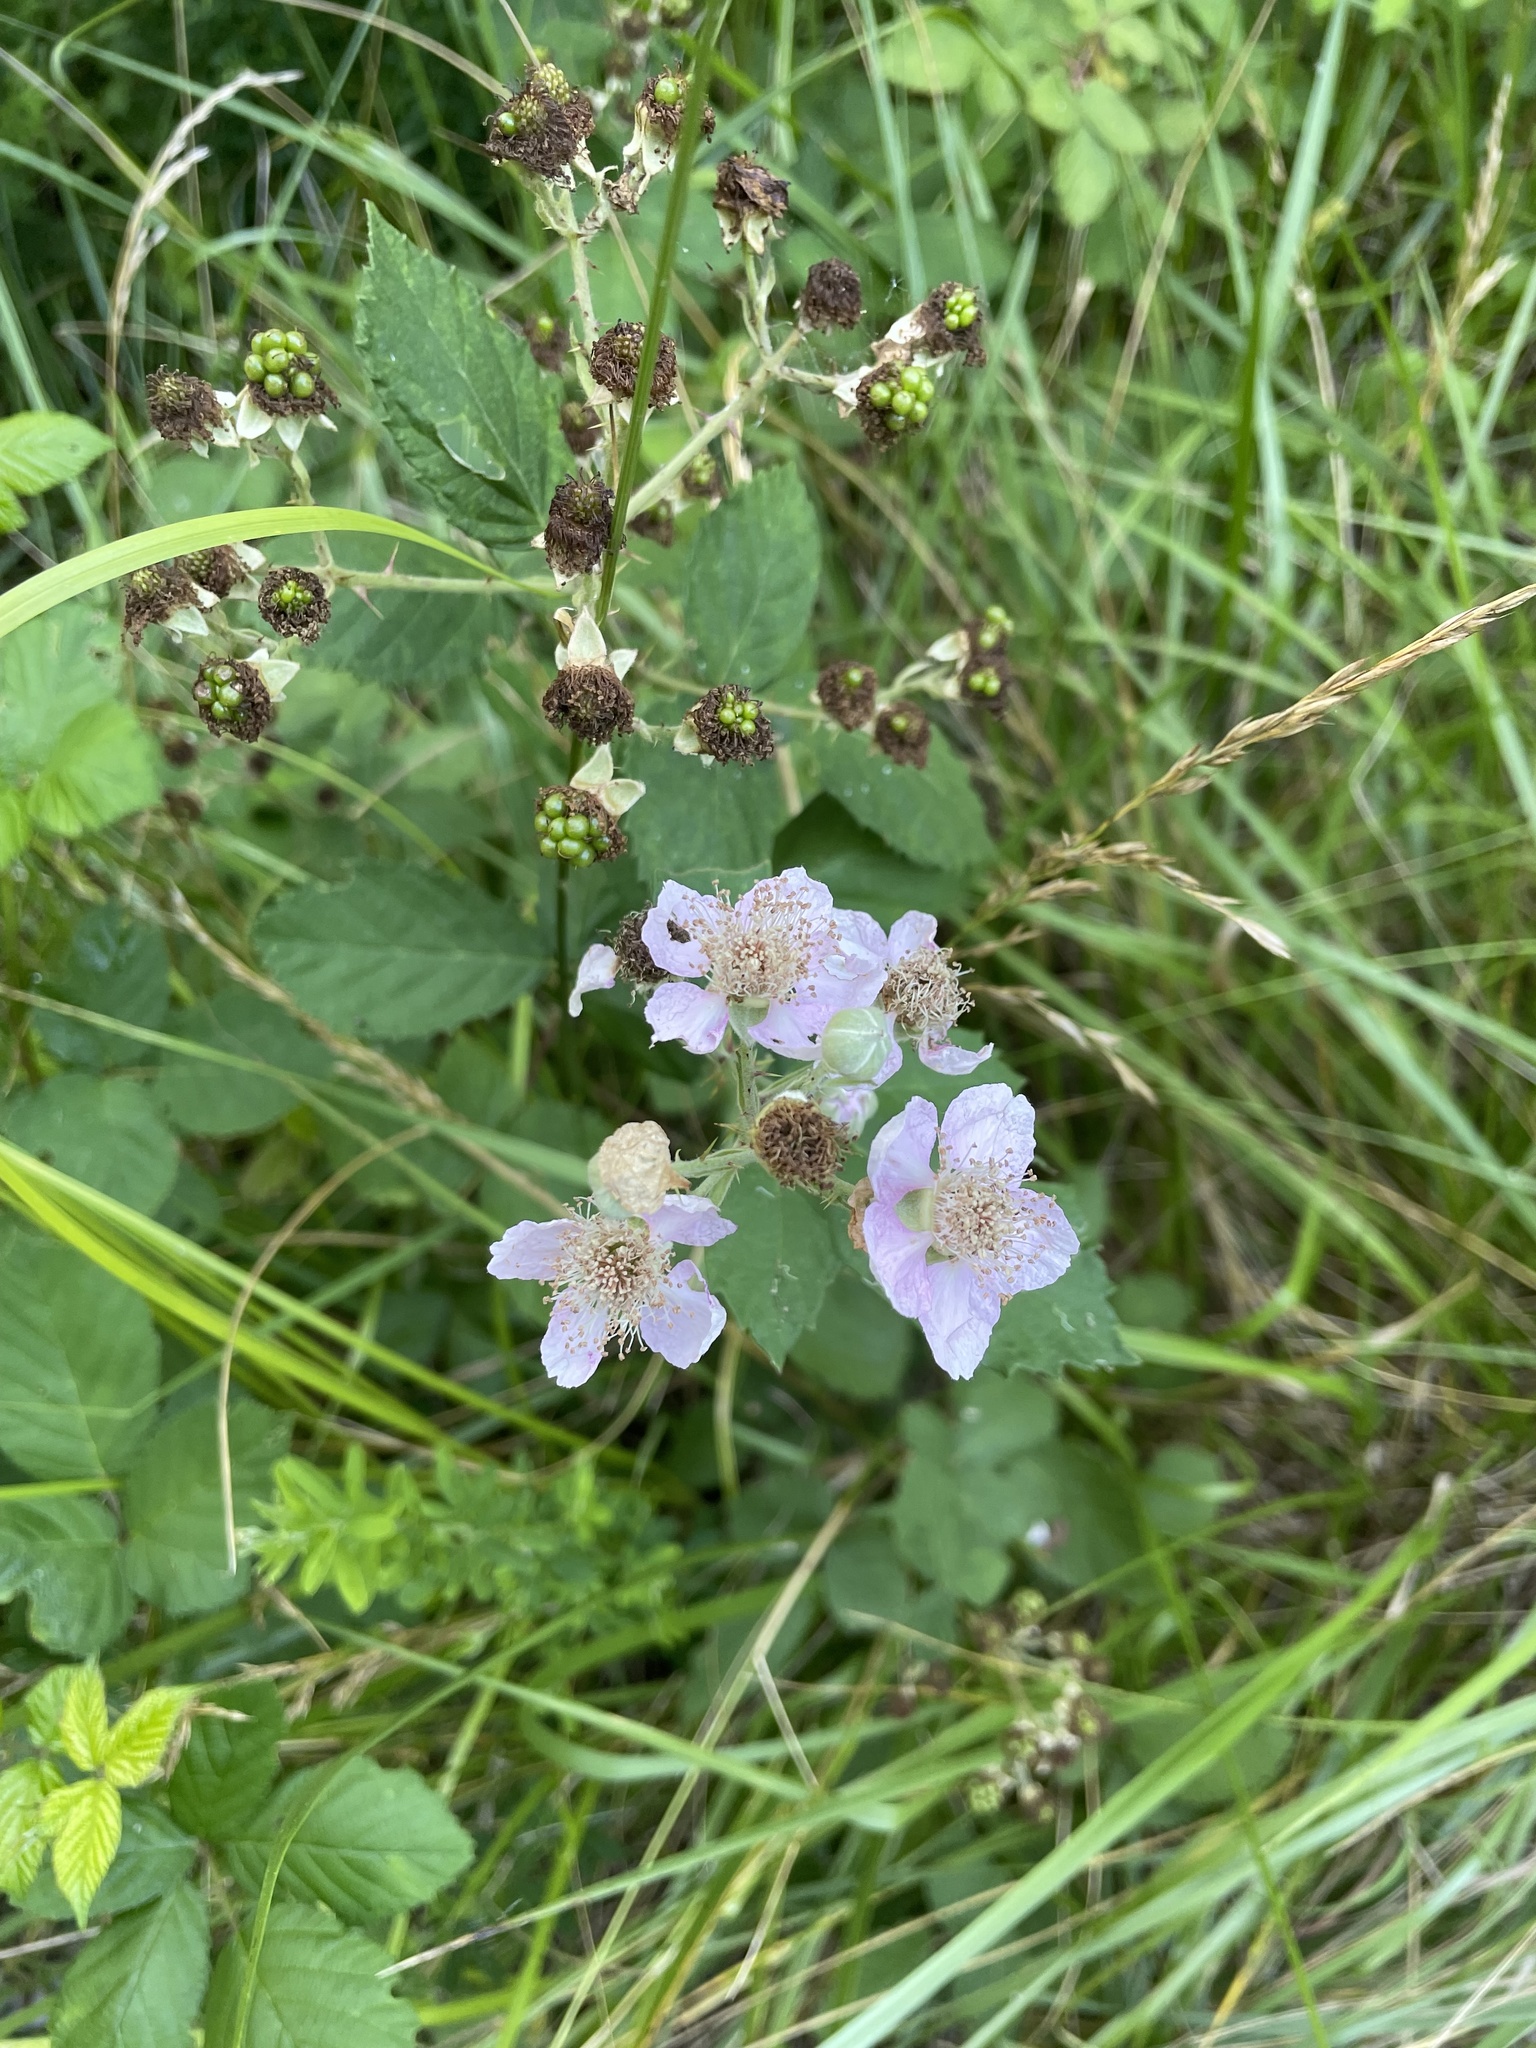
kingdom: Plantae
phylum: Tracheophyta
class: Magnoliopsida
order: Rosales
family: Rosaceae
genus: Rubus
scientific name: Rubus bifrons
